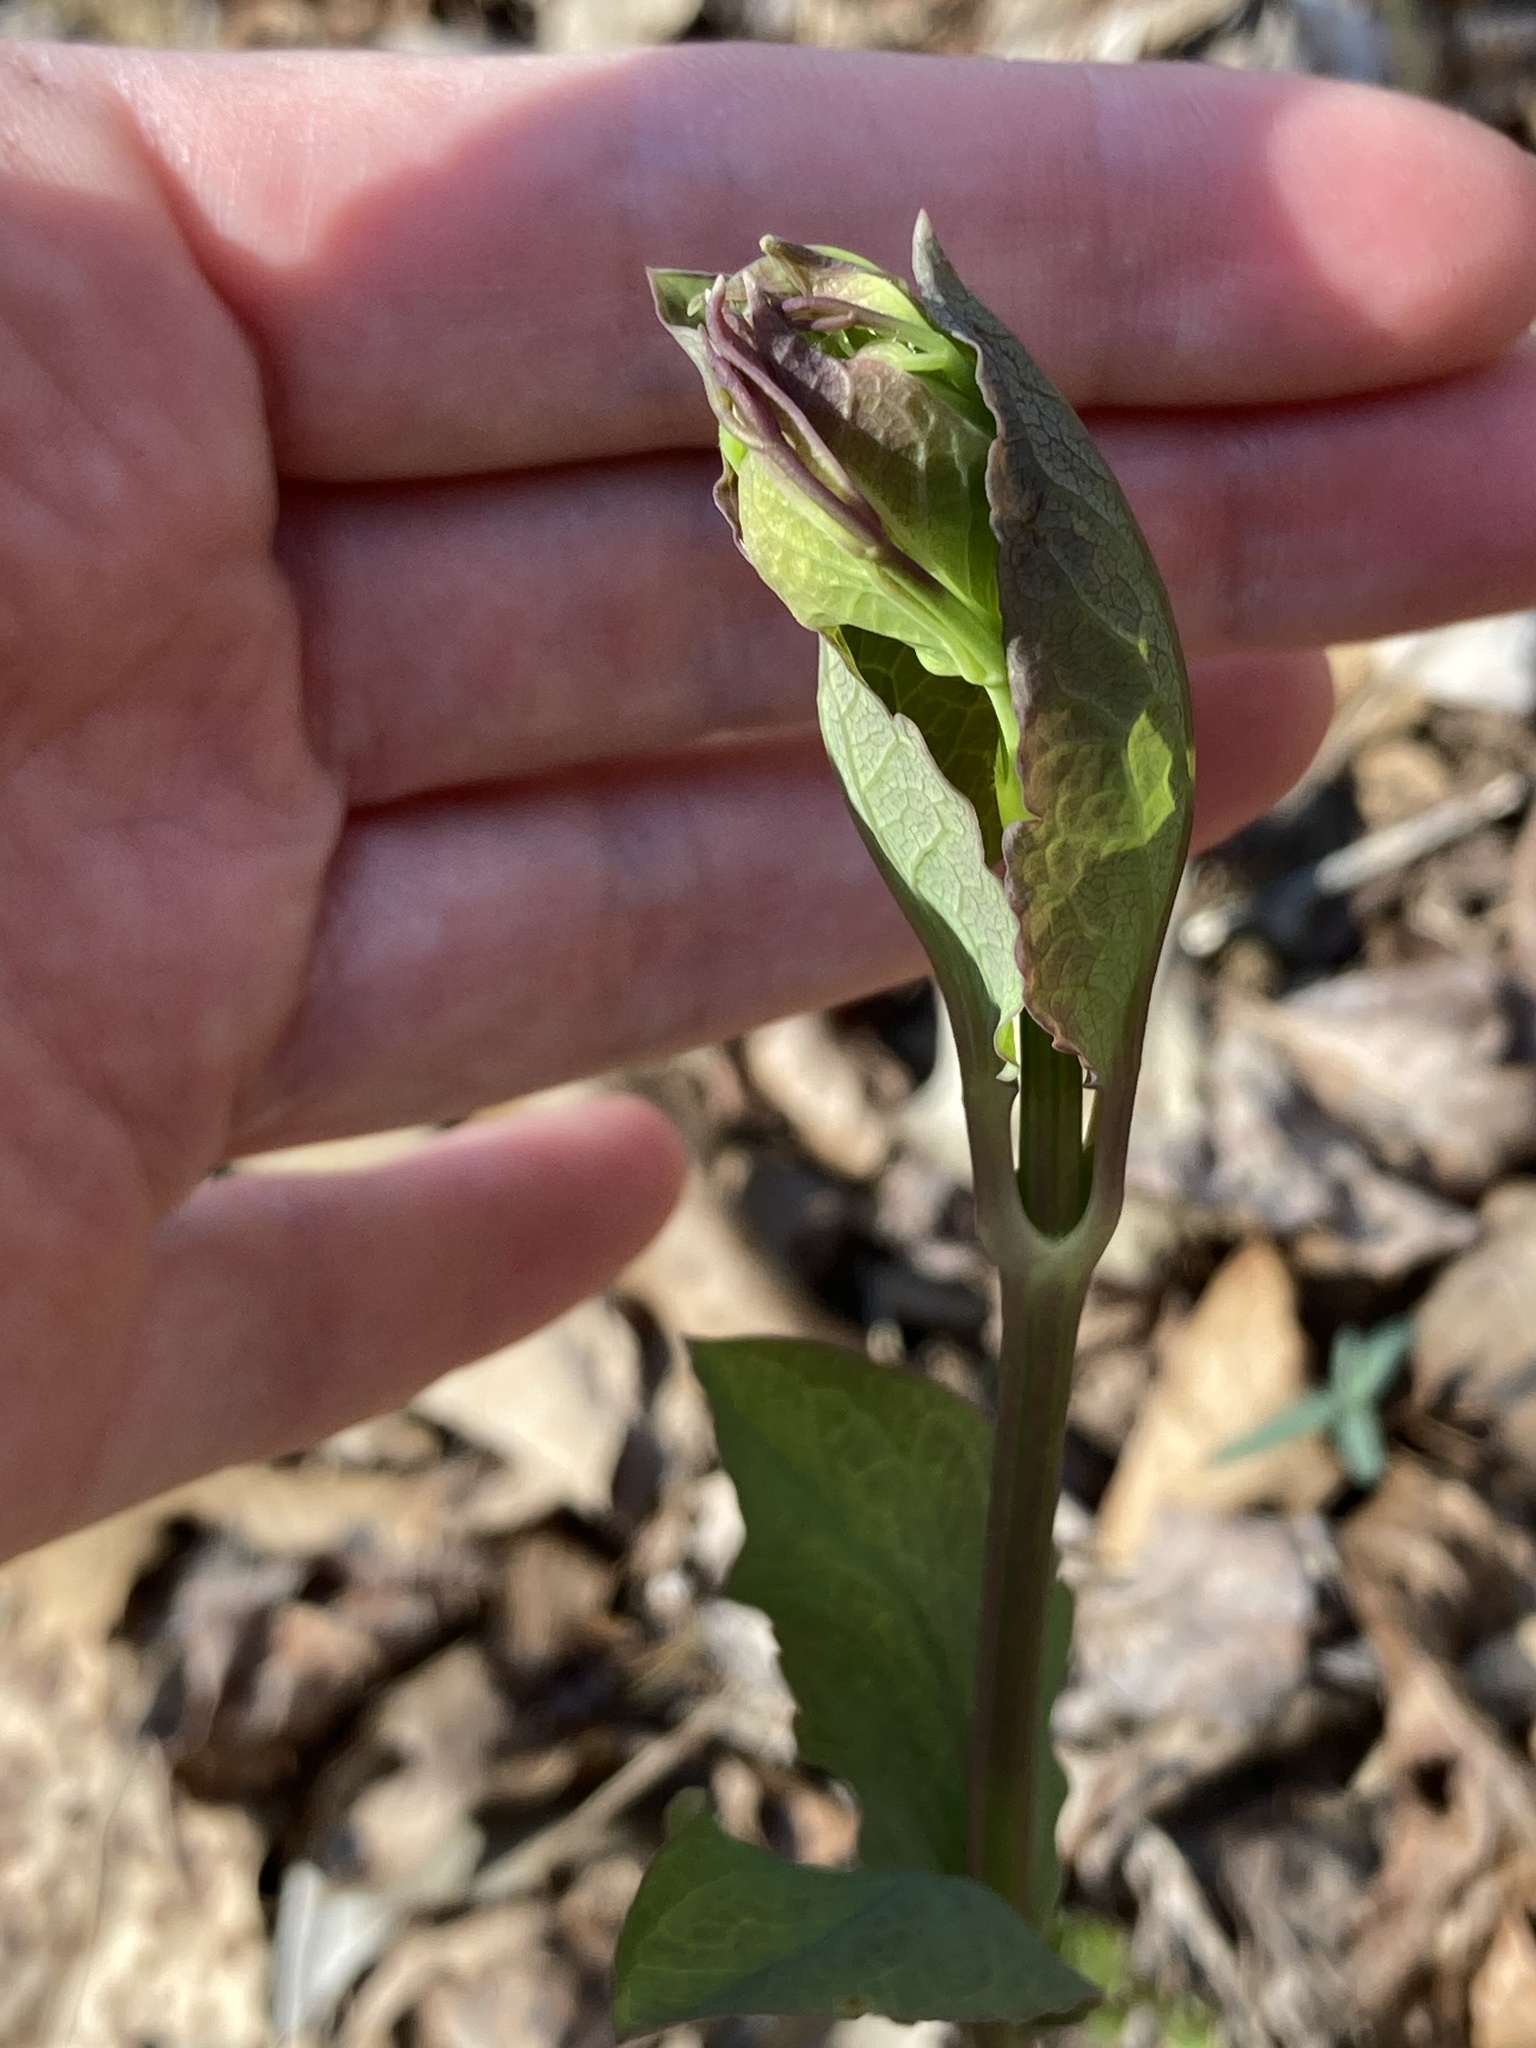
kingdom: Plantae
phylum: Tracheophyta
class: Magnoliopsida
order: Boraginales
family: Boraginaceae
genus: Mertensia
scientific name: Mertensia virginica
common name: Virginia bluebells
